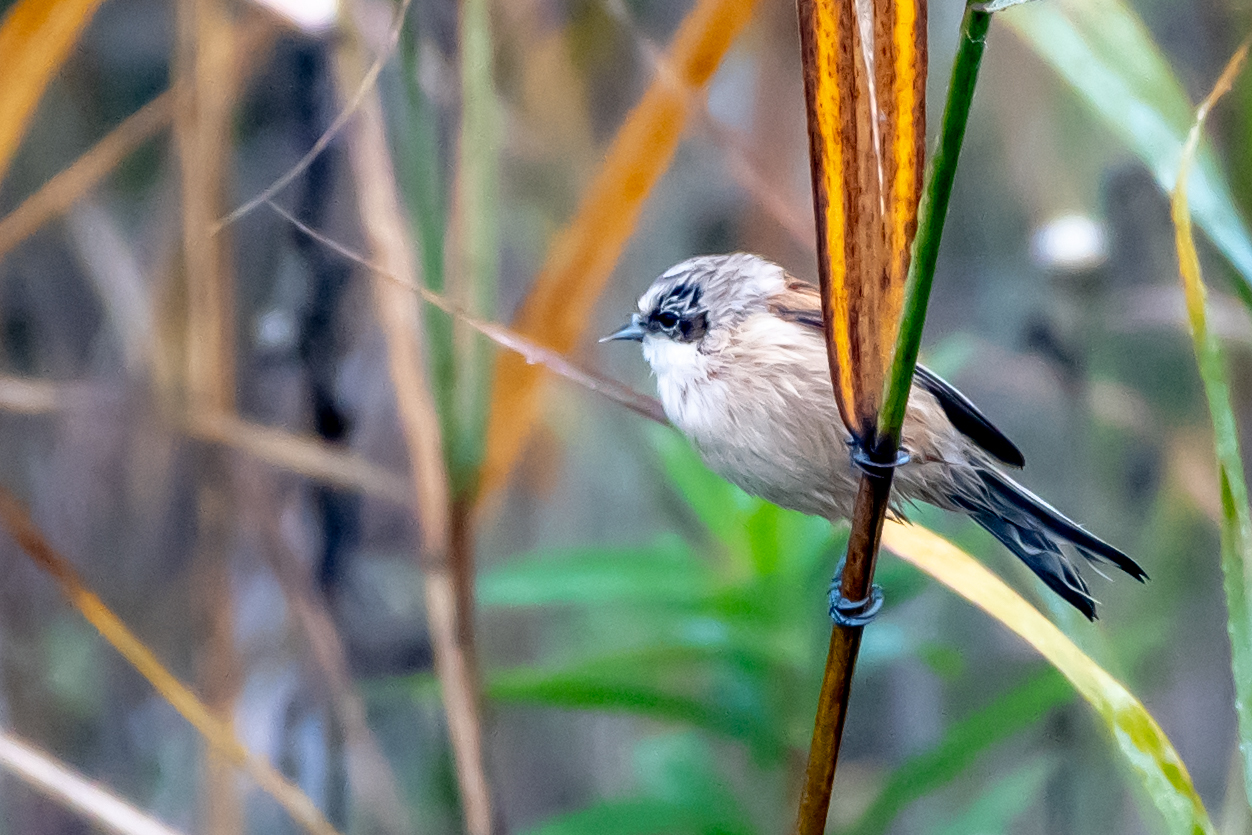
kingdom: Animalia
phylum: Chordata
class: Aves
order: Passeriformes
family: Remizidae
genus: Remiz
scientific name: Remiz pendulinus
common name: Eurasian penduline tit
